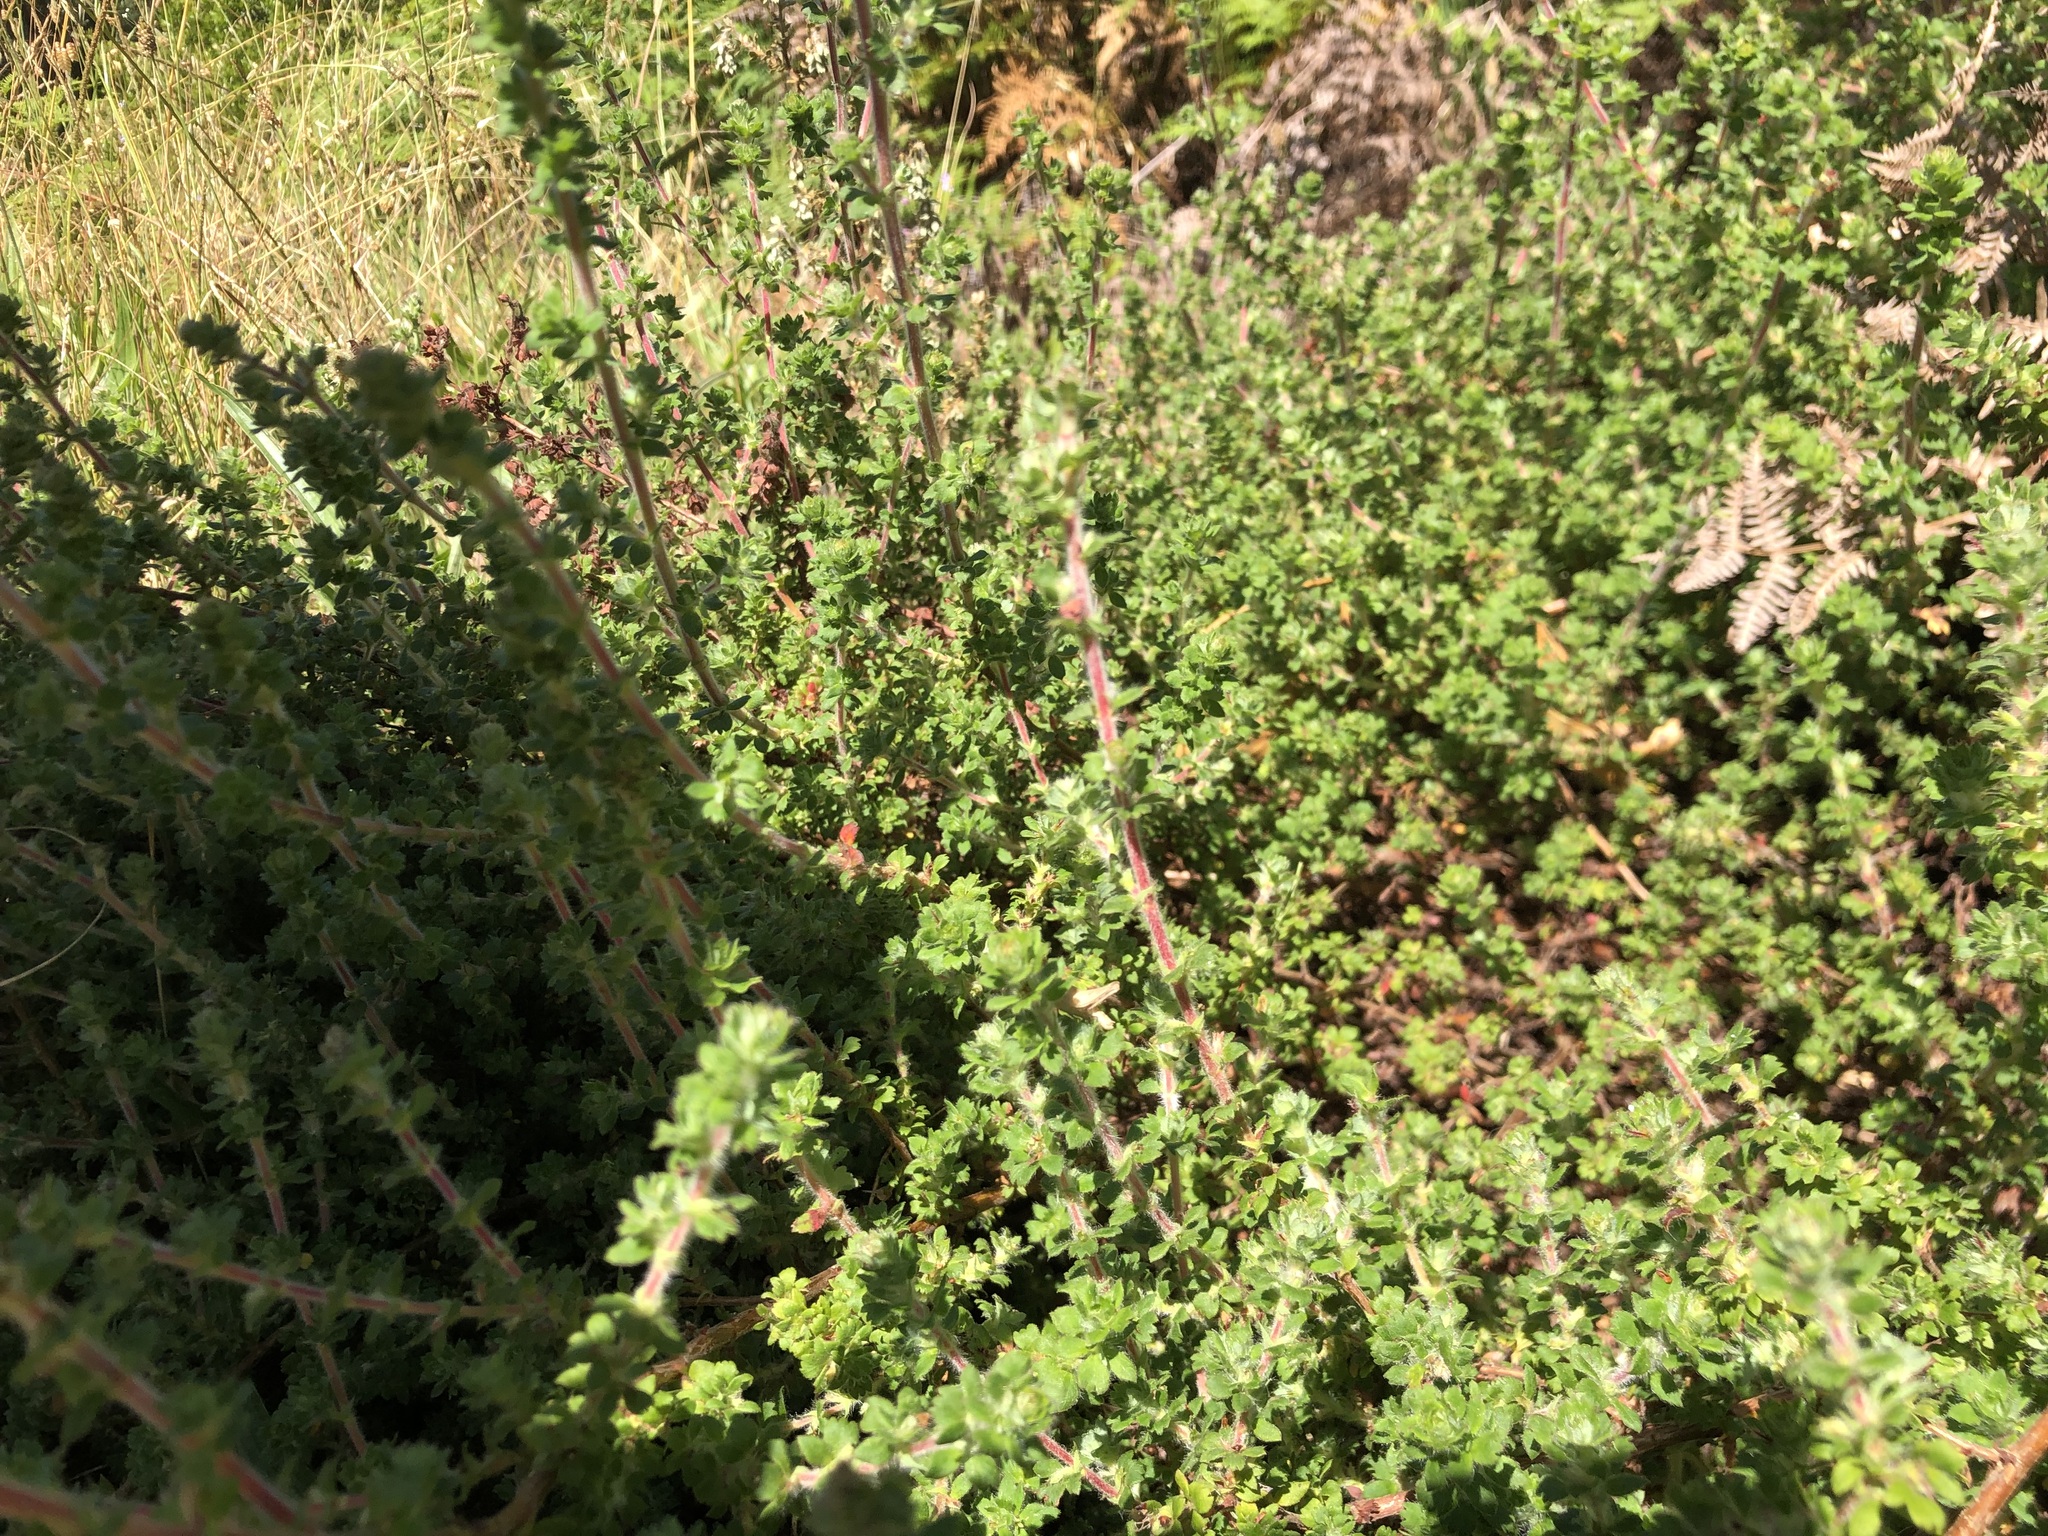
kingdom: Plantae
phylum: Tracheophyta
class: Magnoliopsida
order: Rosales
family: Rosaceae
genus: Cliffortia
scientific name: Cliffortia filicaulis
